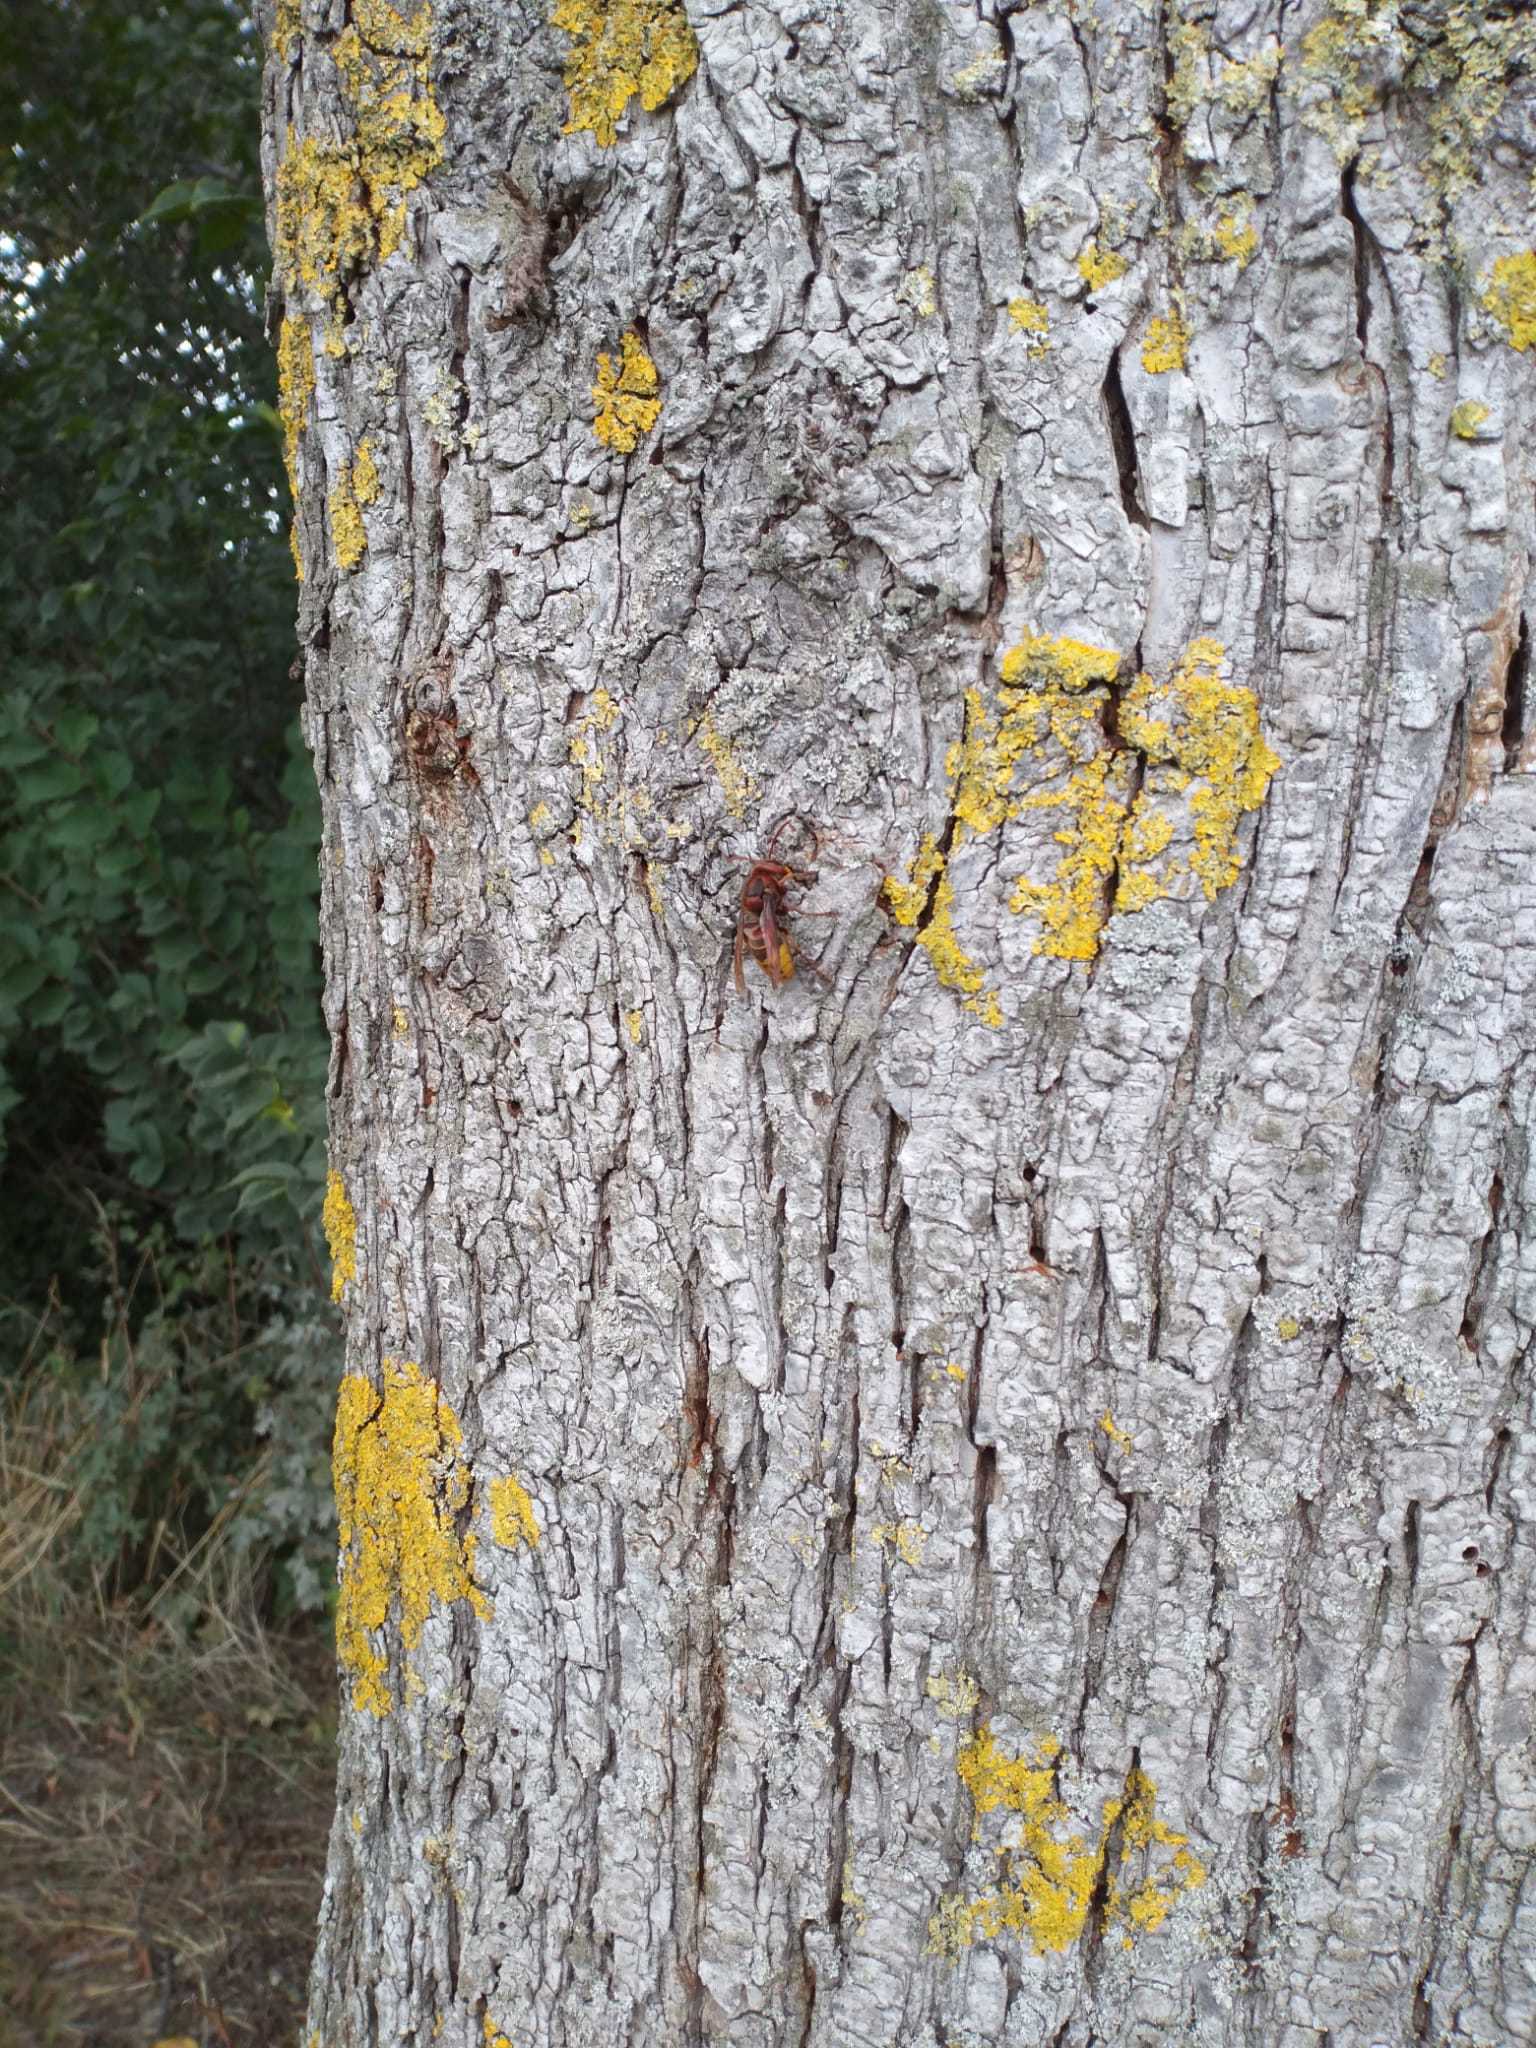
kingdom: Animalia
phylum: Arthropoda
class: Insecta
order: Hymenoptera
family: Vespidae
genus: Vespa
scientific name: Vespa crabro
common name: Hornet
